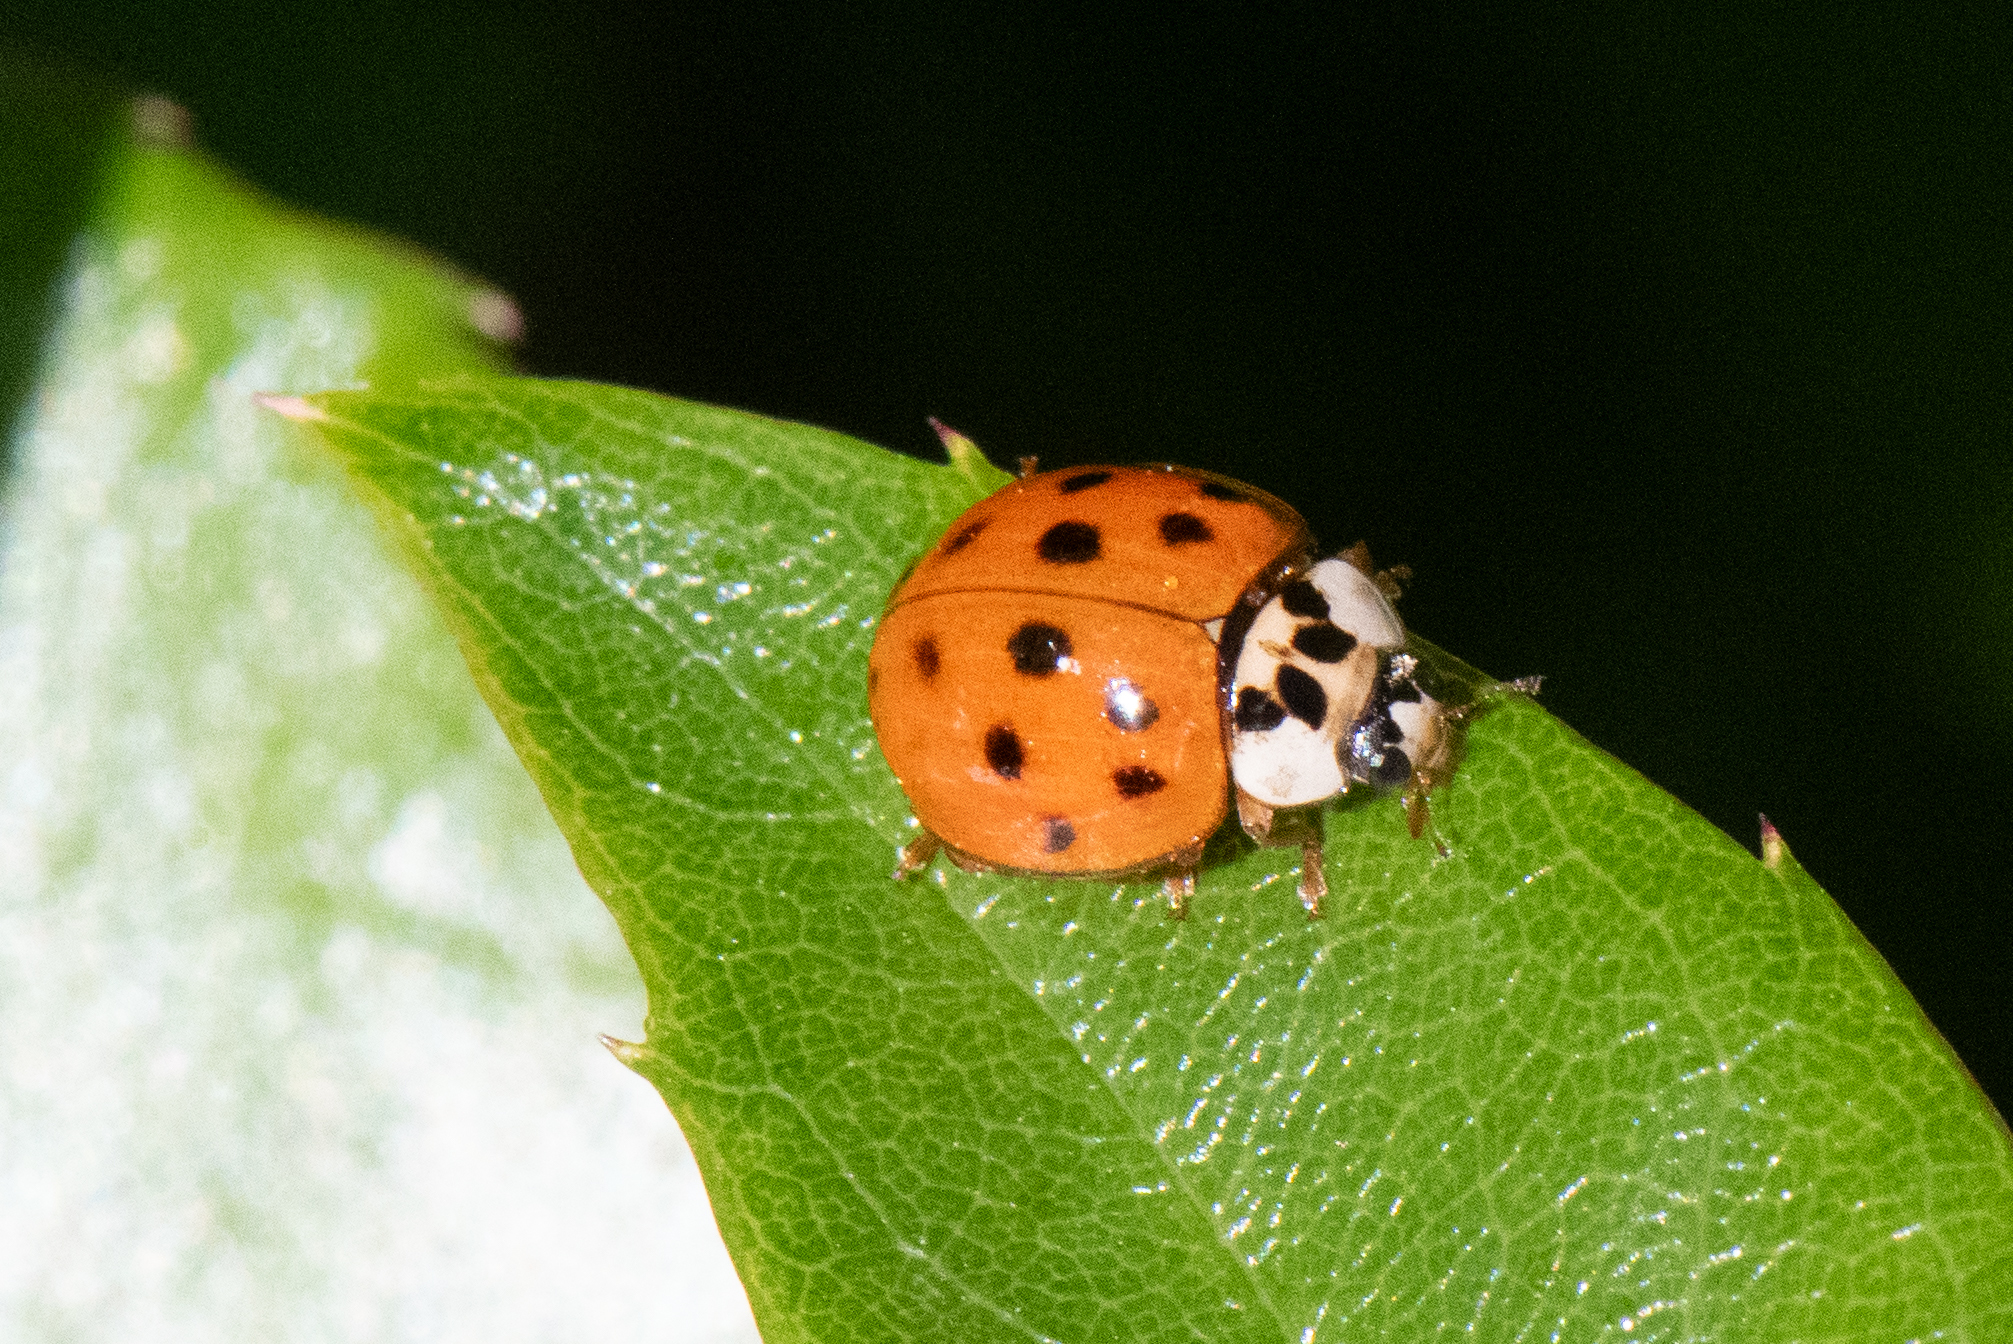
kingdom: Animalia
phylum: Arthropoda
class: Insecta
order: Coleoptera
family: Coccinellidae
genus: Harmonia
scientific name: Harmonia axyridis
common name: Harlequin ladybird
